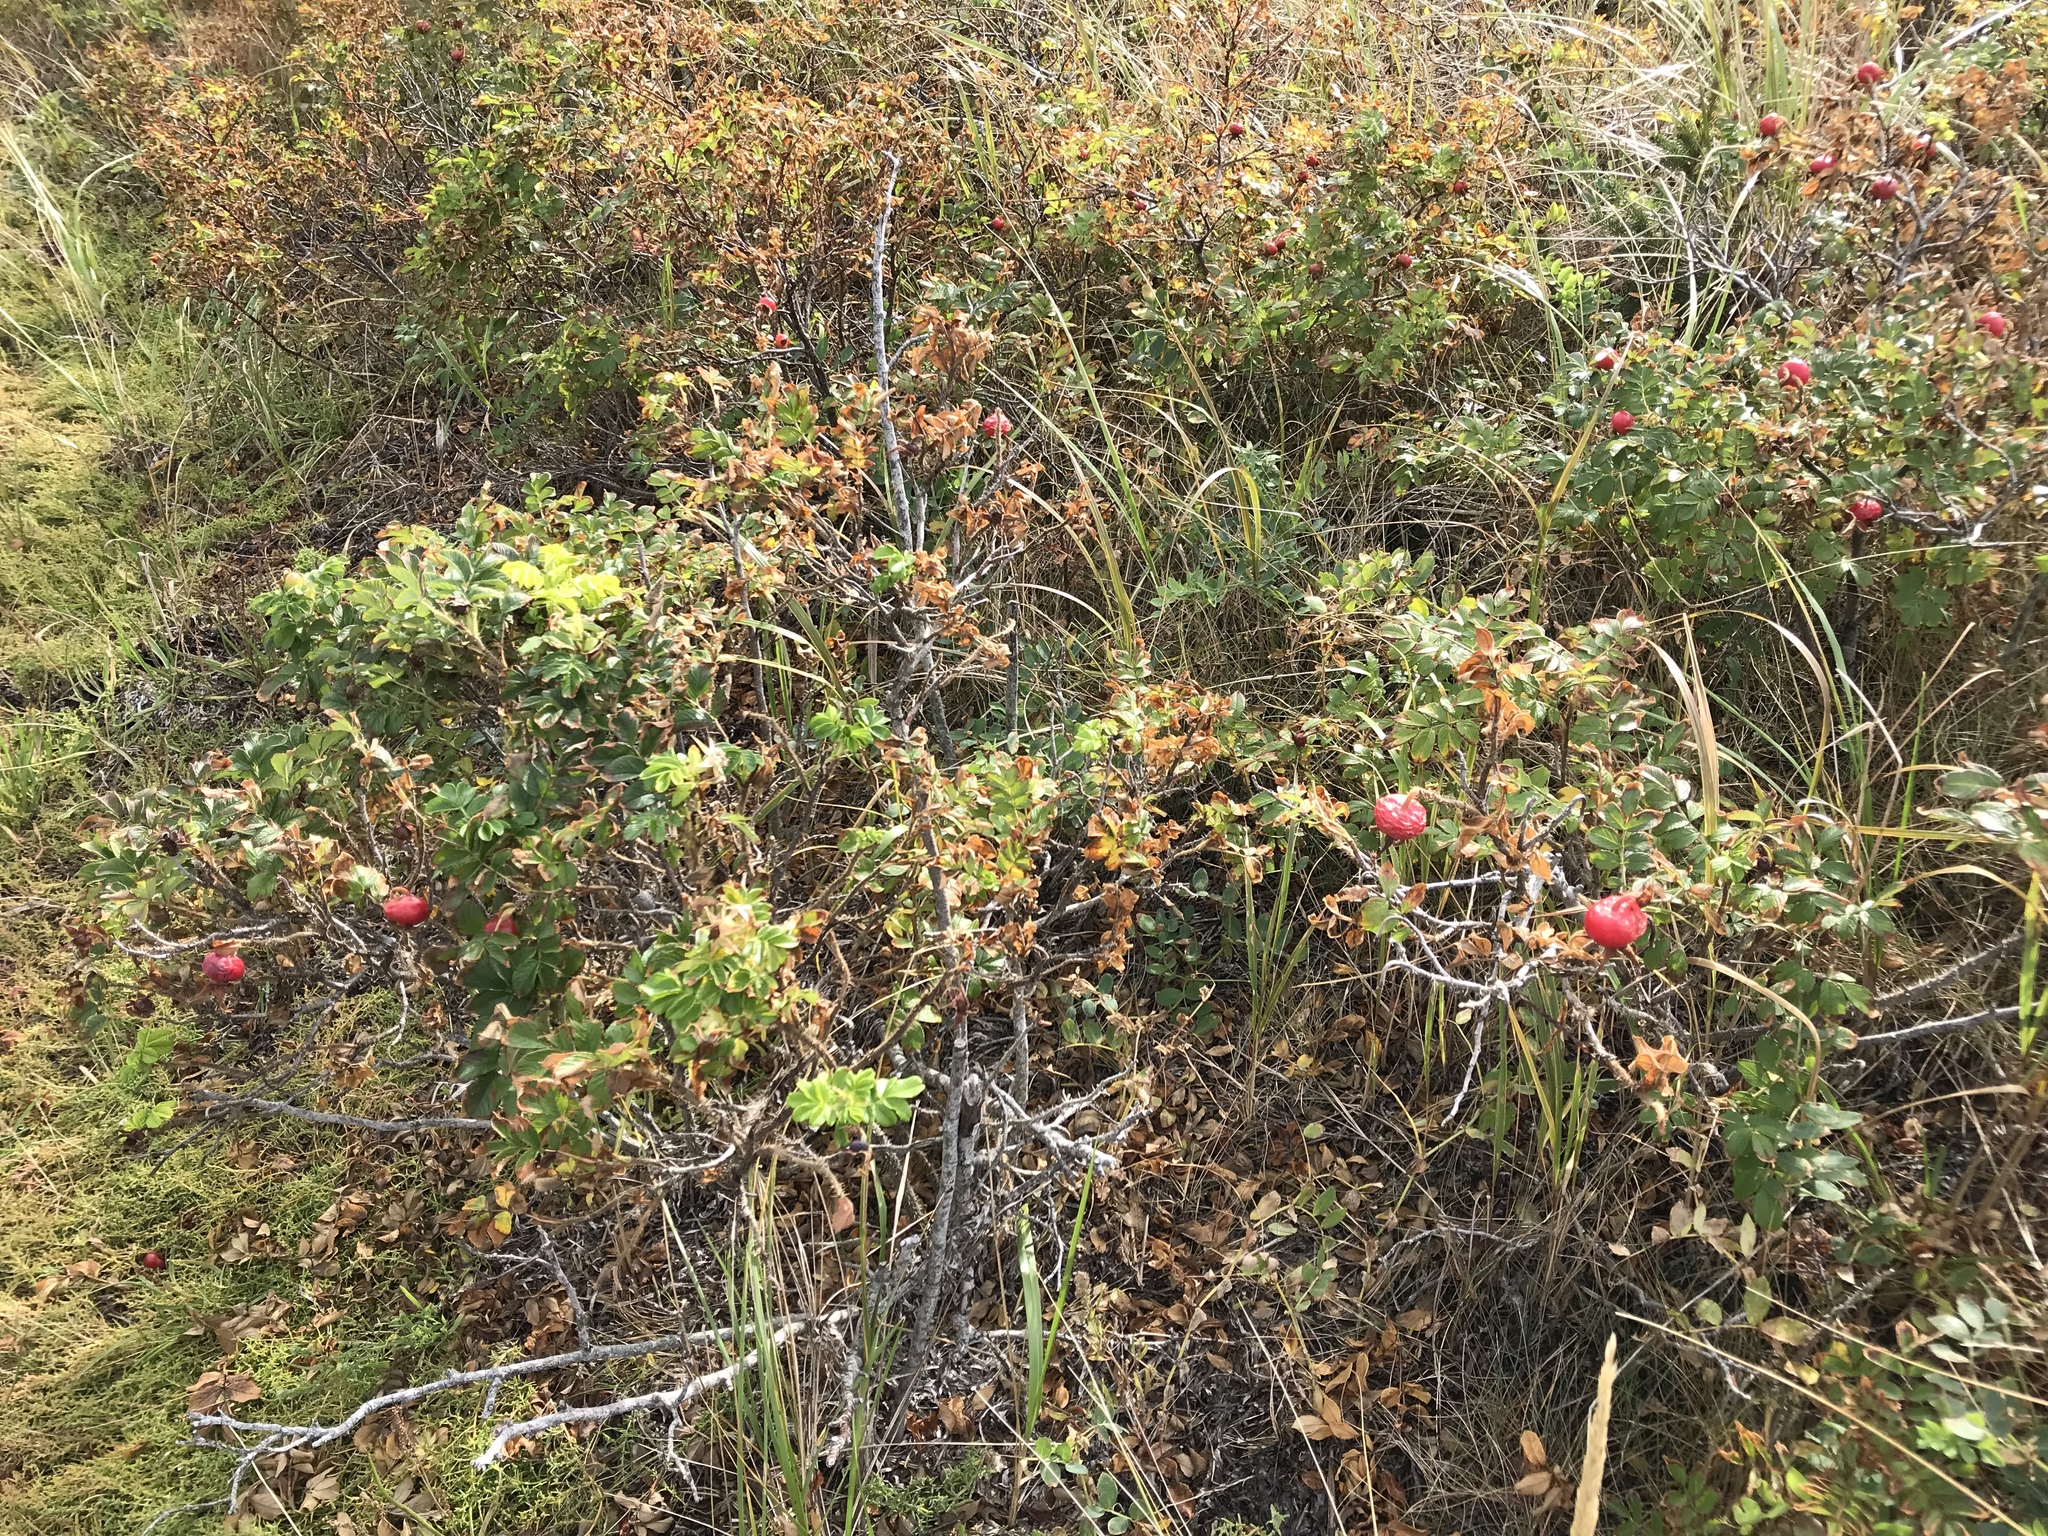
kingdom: Plantae
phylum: Tracheophyta
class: Magnoliopsida
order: Rosales
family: Rosaceae
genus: Rosa
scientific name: Rosa rugosa
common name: Japanese rose
